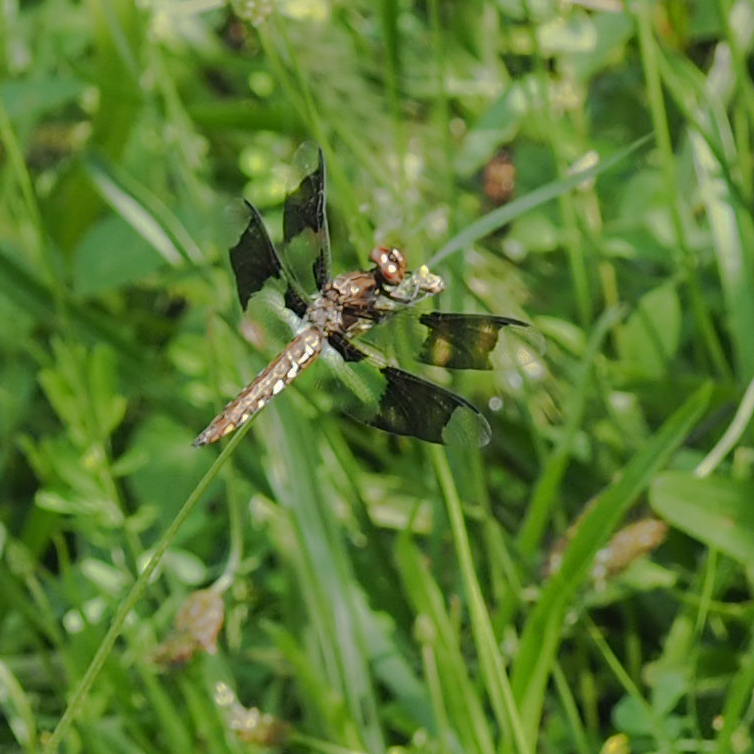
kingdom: Animalia
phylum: Arthropoda
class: Insecta
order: Odonata
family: Libellulidae
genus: Plathemis
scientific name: Plathemis lydia
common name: Common whitetail
